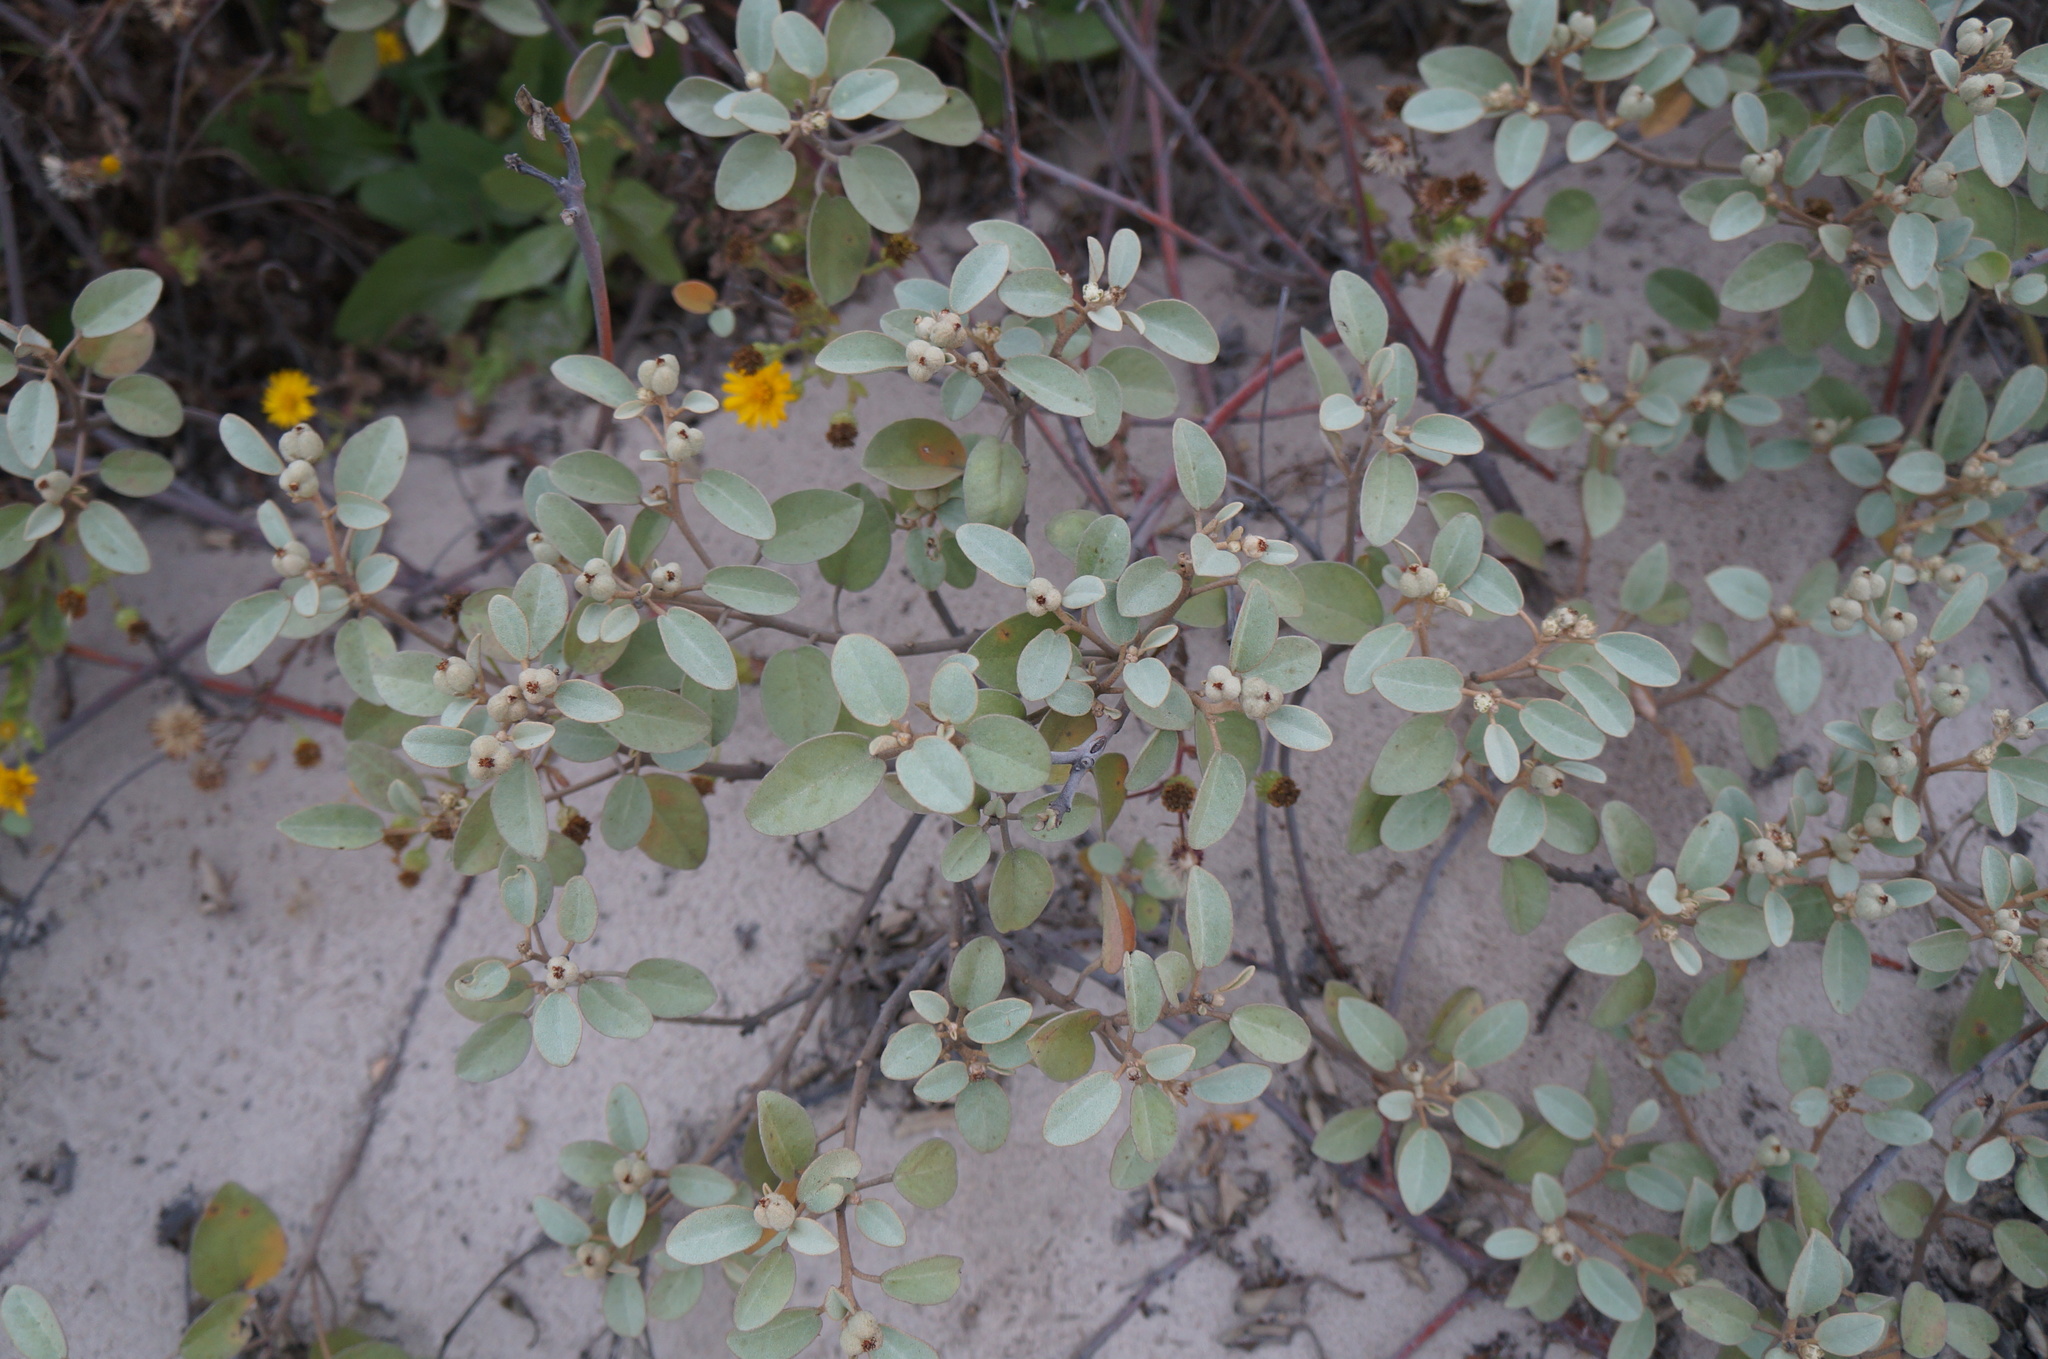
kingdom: Plantae
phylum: Tracheophyta
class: Magnoliopsida
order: Malpighiales
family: Euphorbiaceae
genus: Croton
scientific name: Croton punctatus
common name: Beach-tea
